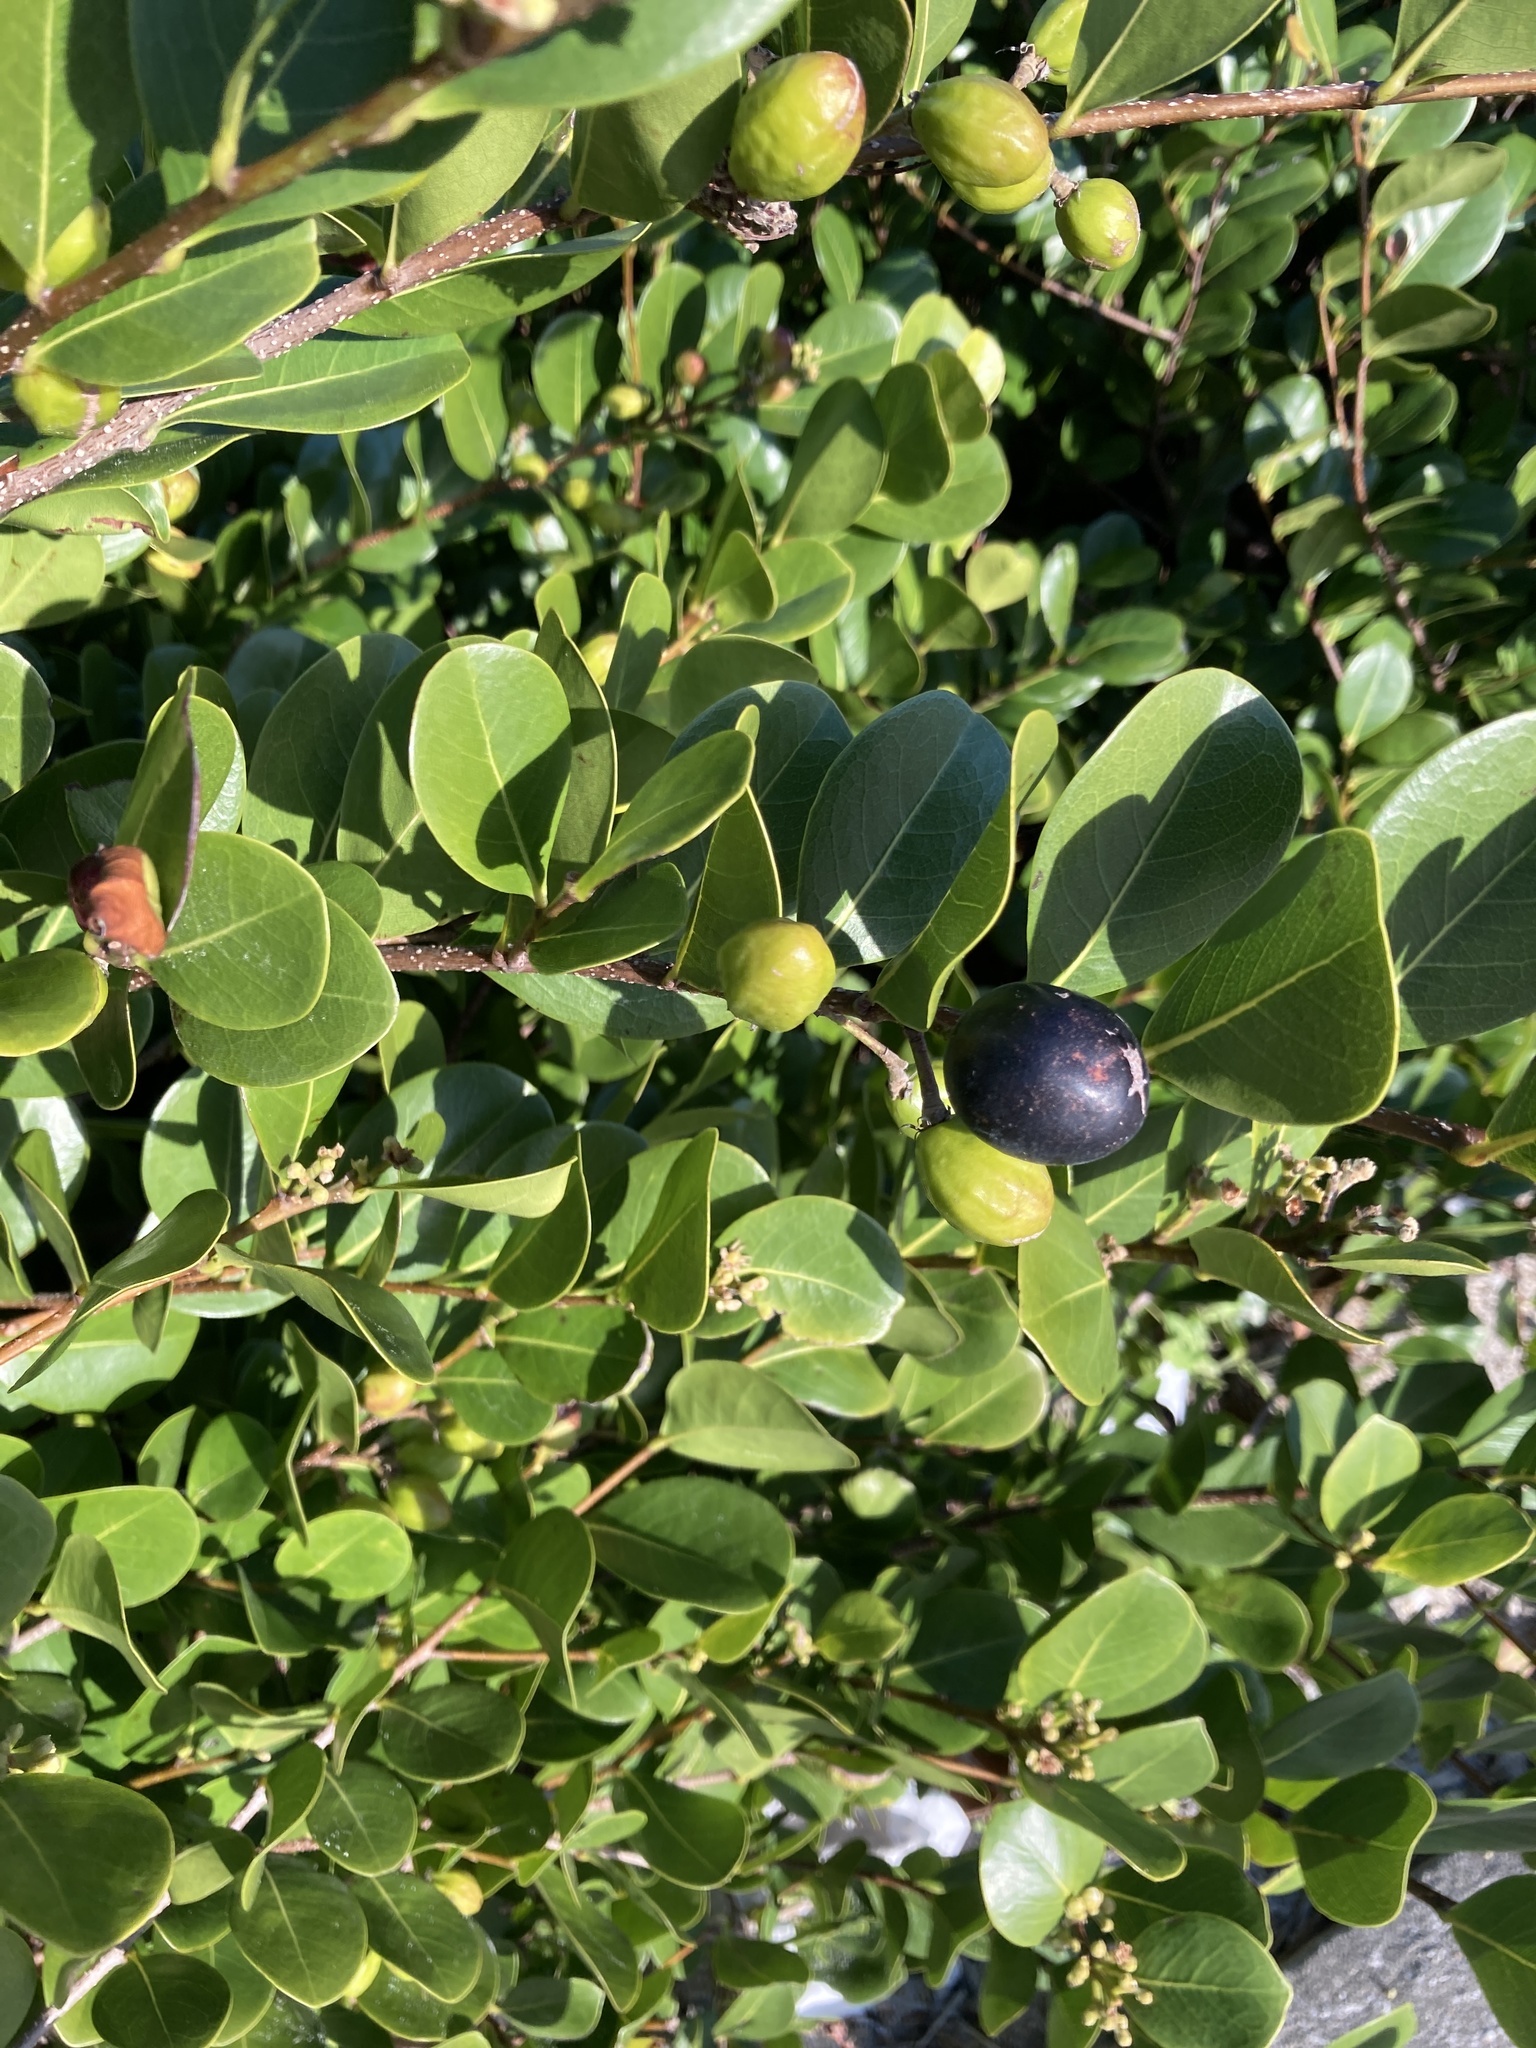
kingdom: Plantae
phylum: Tracheophyta
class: Magnoliopsida
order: Malpighiales
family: Chrysobalanaceae
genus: Chrysobalanus
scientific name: Chrysobalanus icaco
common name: Coco plum
